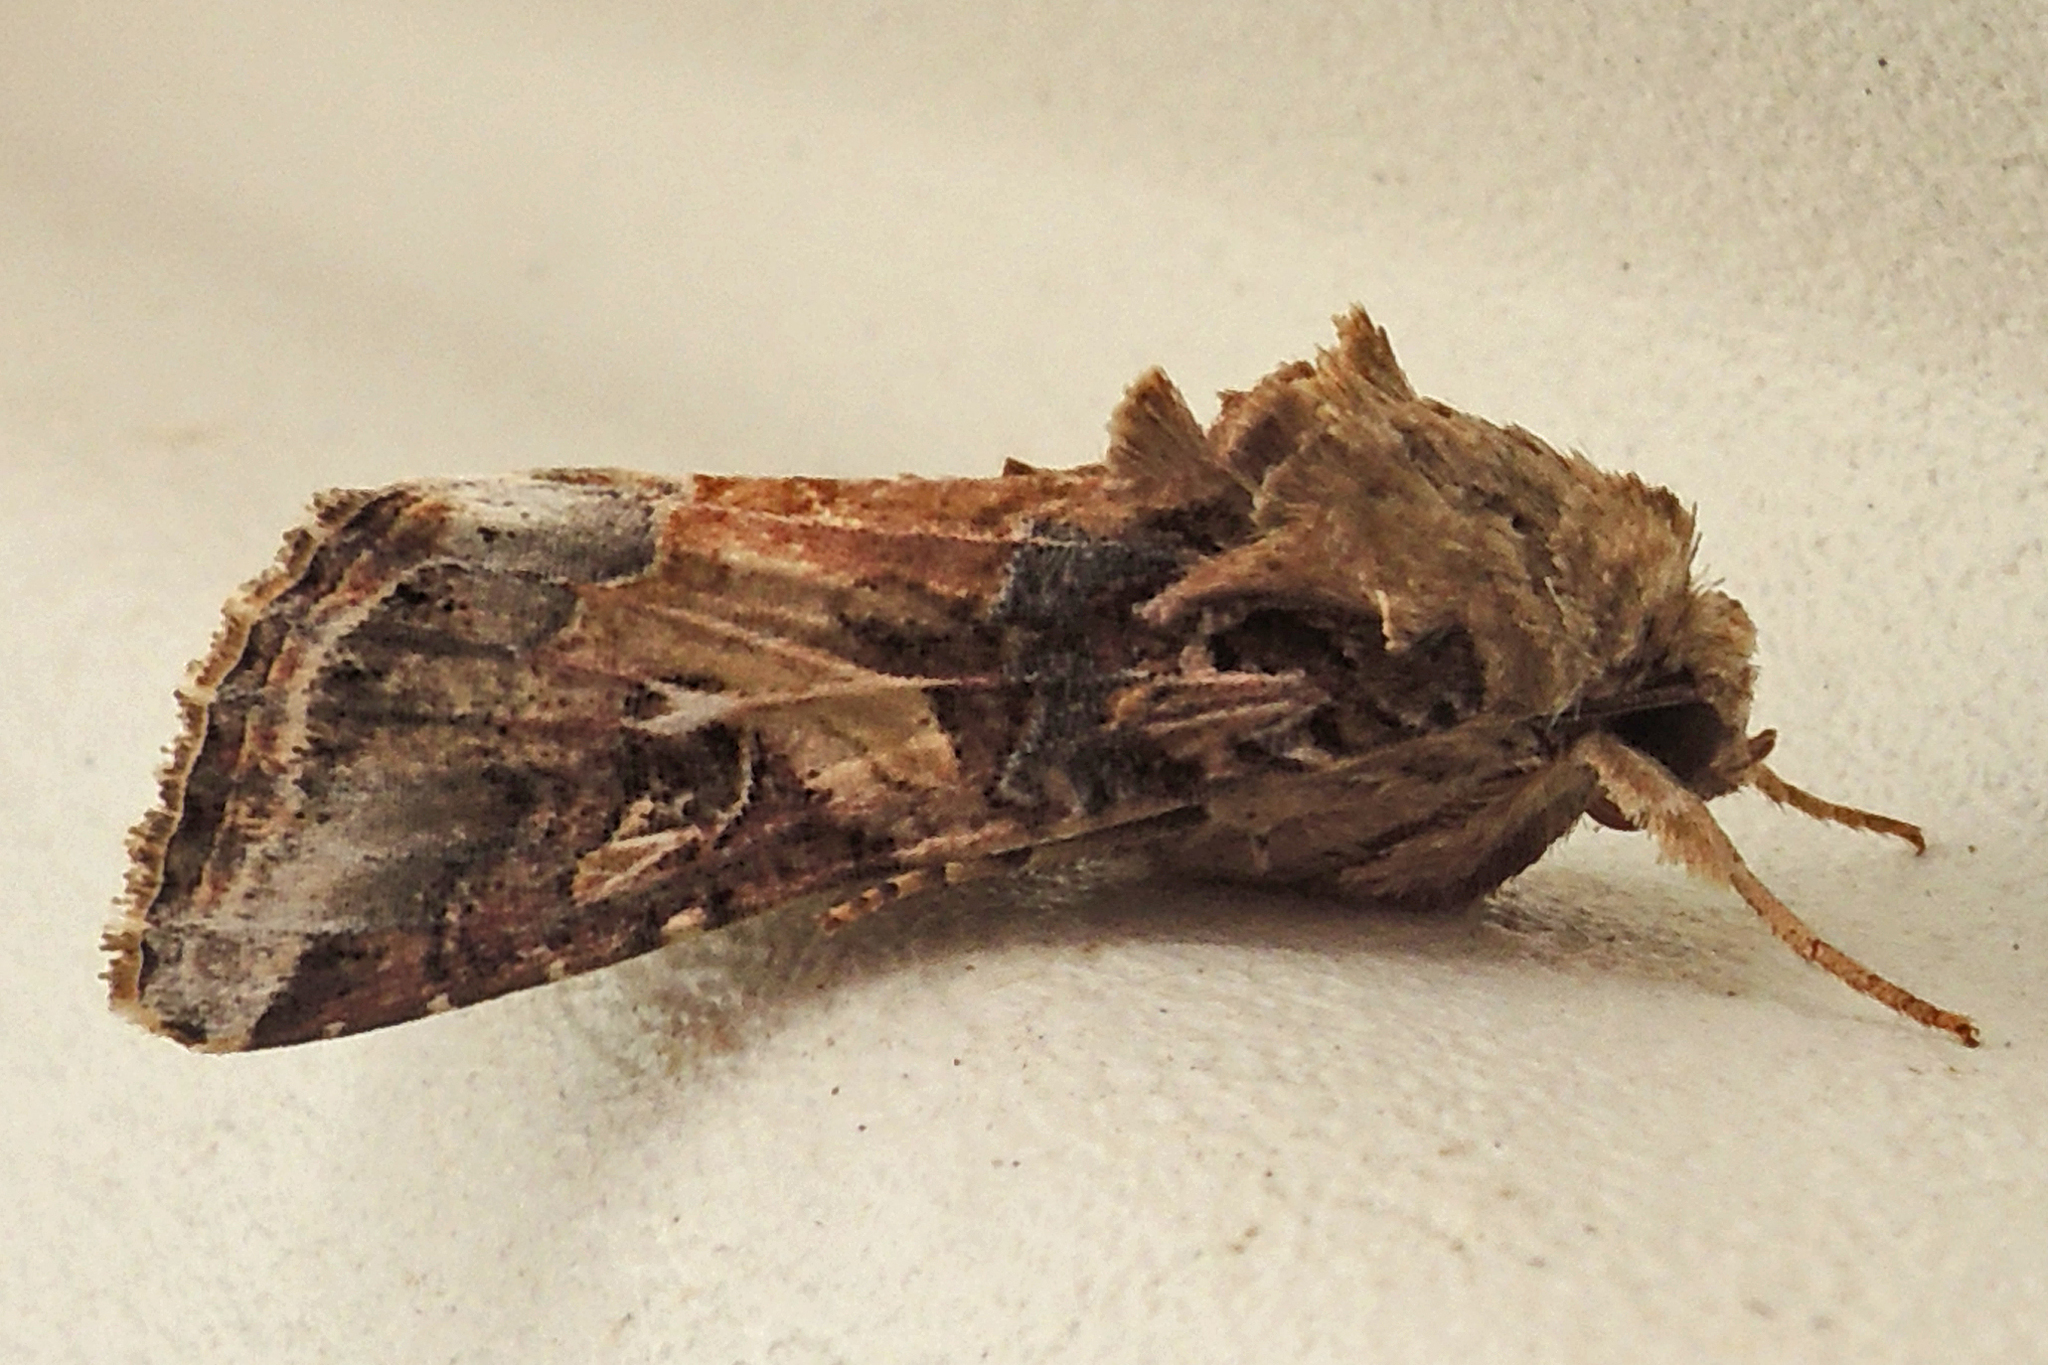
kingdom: Animalia
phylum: Arthropoda
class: Insecta
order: Lepidoptera
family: Noctuidae
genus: Spodoptera
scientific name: Spodoptera ornithogalli
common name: Yellow-striped armyworm
